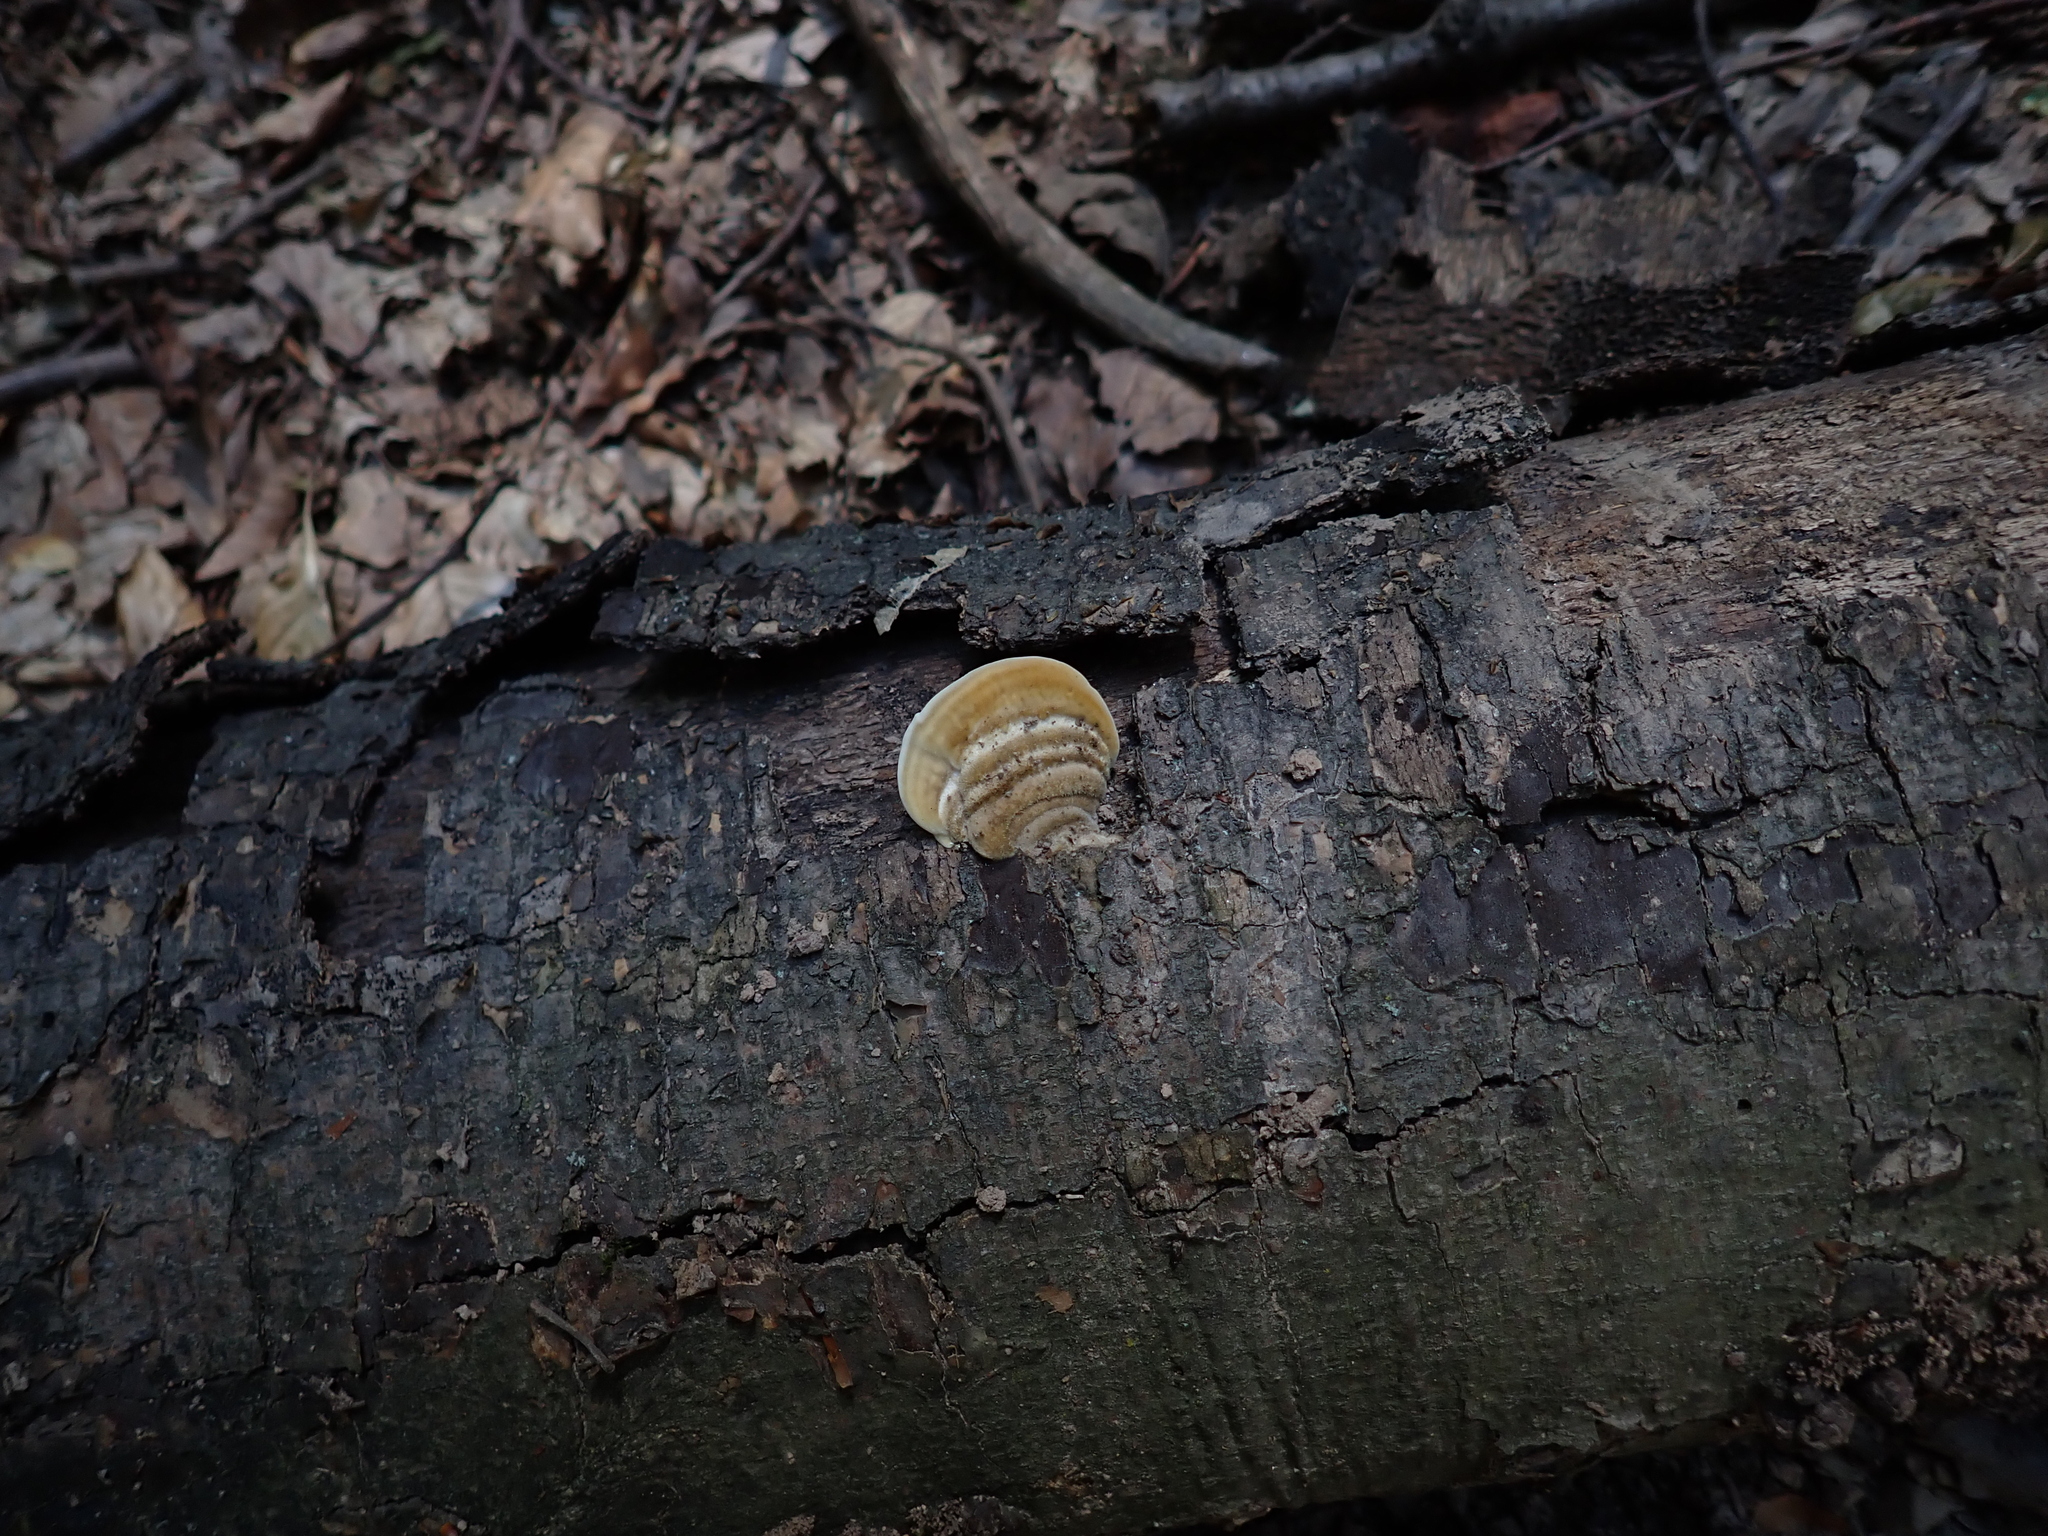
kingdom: Fungi
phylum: Basidiomycota
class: Agaricomycetes
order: Polyporales
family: Polyporaceae
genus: Trametes
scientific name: Trametes hirsuta
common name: Hairy bracket
